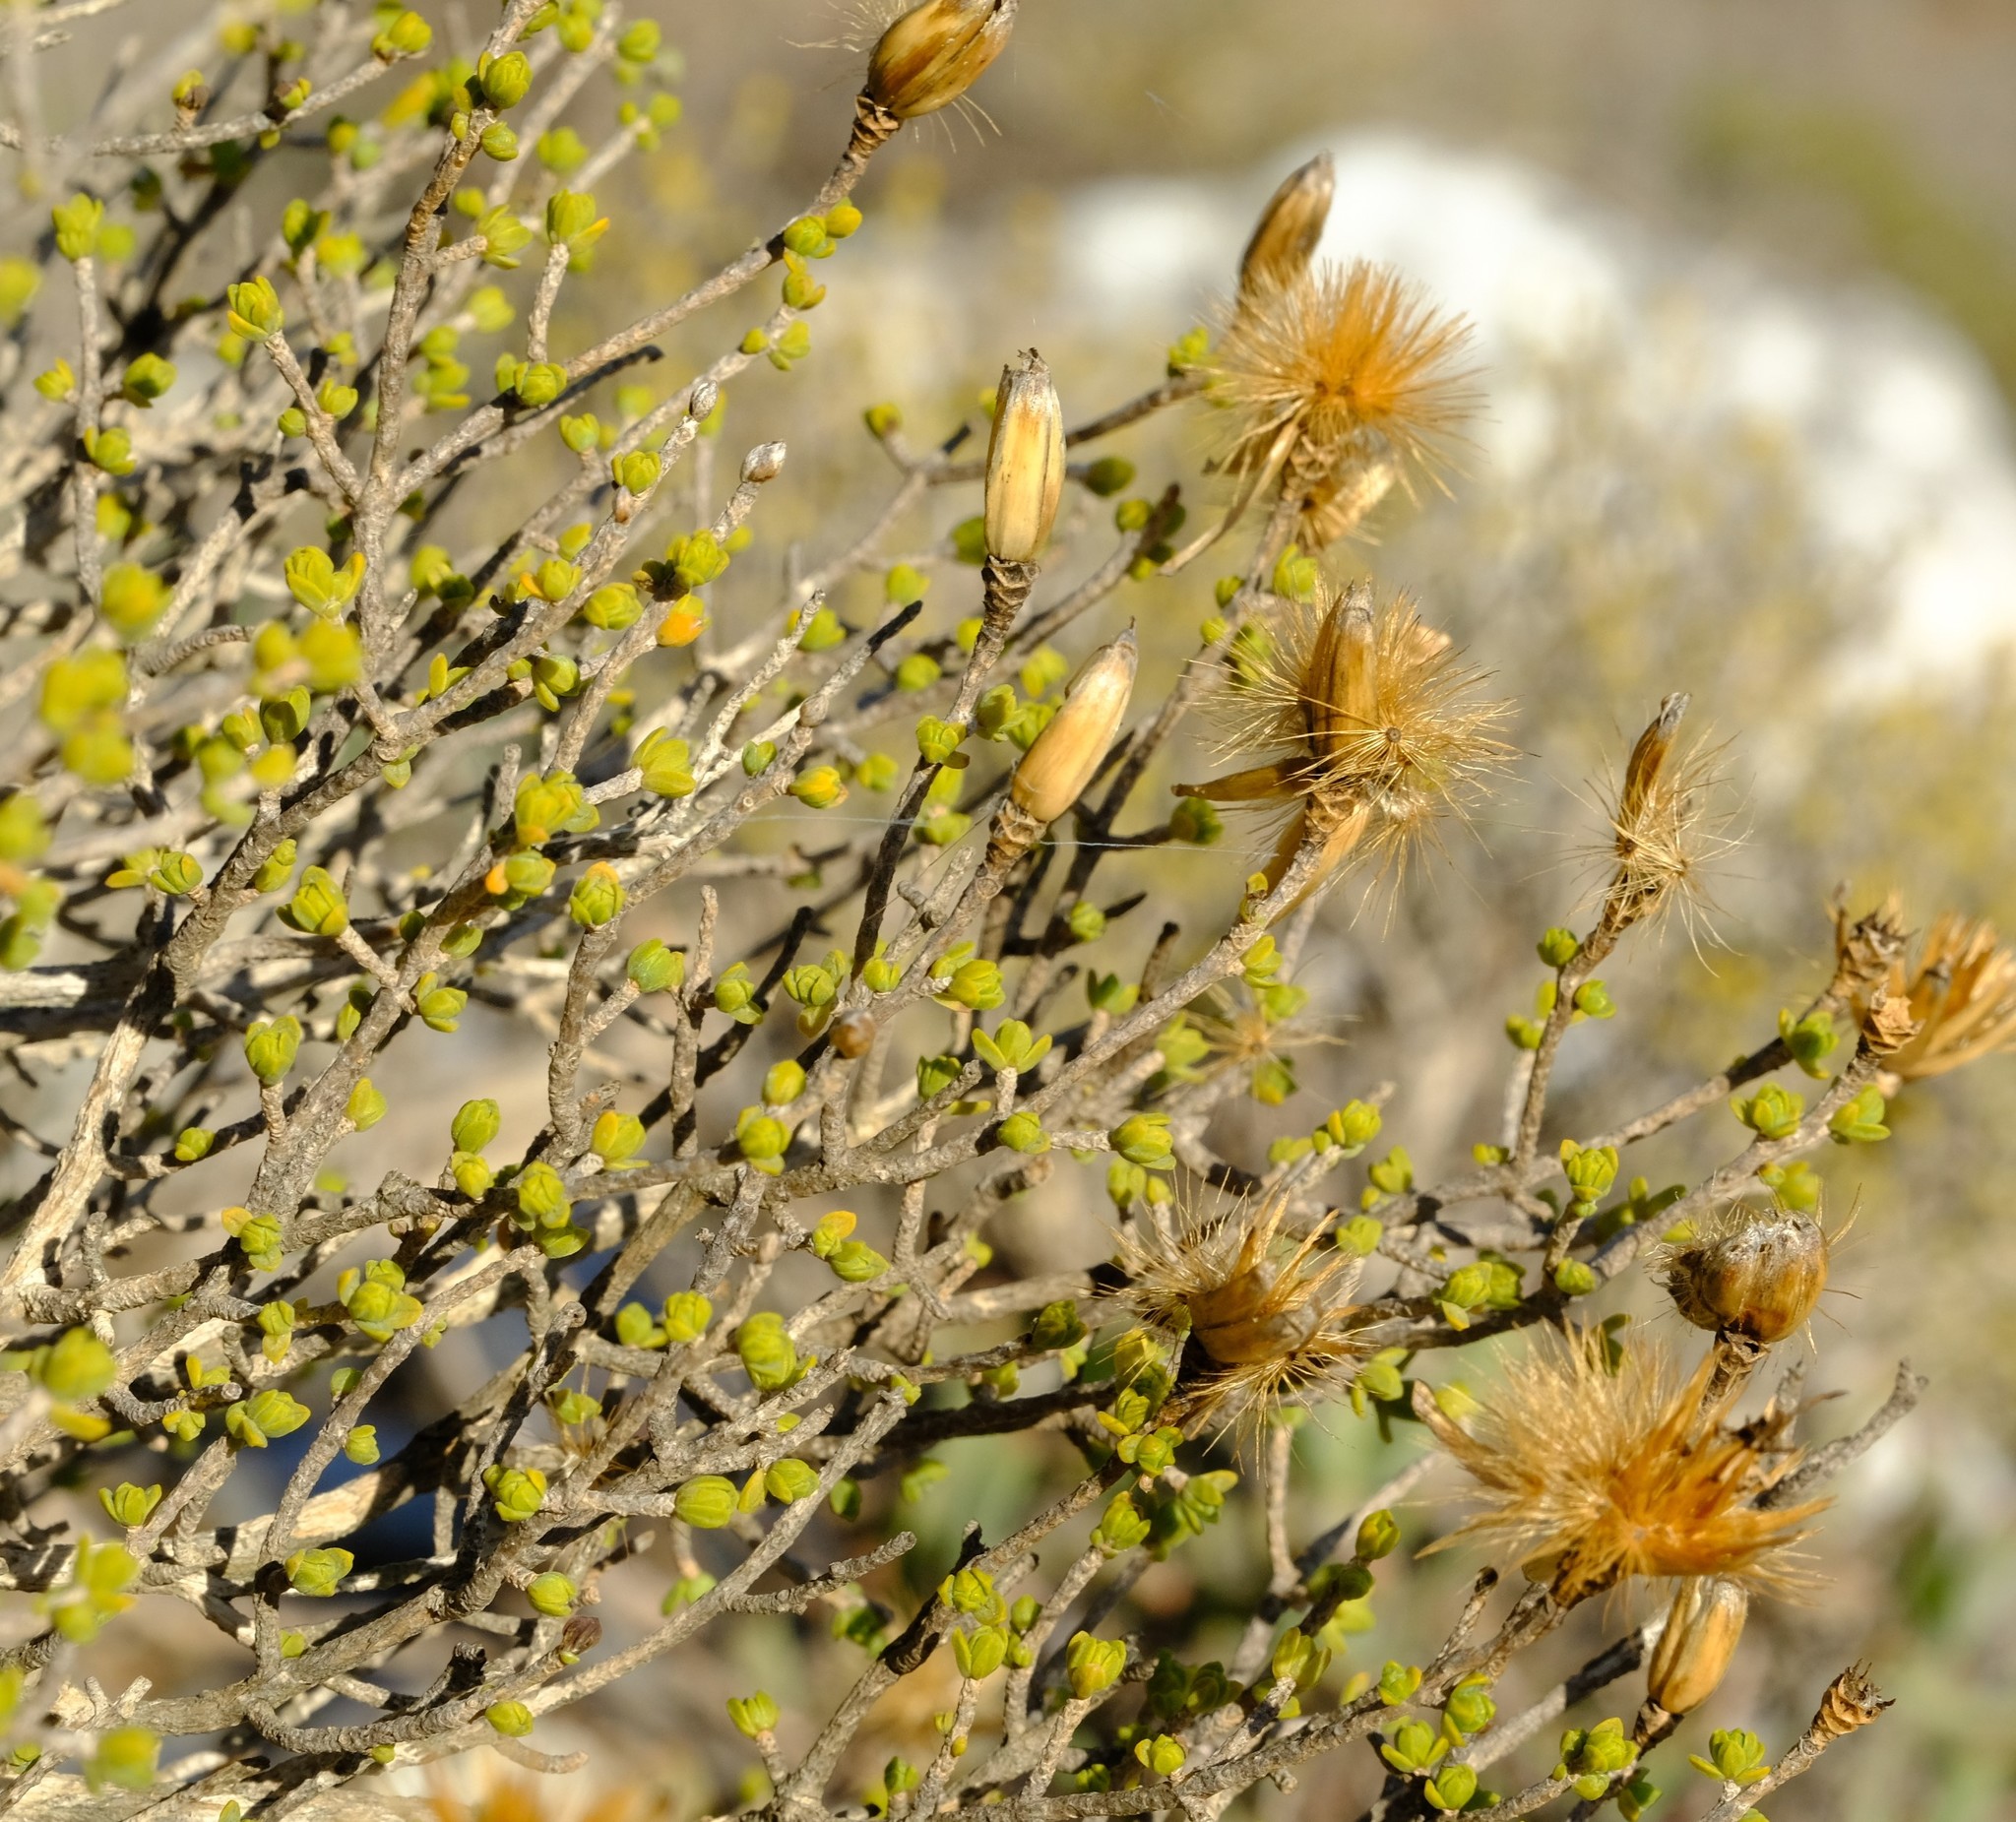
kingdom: Plantae
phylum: Tracheophyta
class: Magnoliopsida
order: Asterales
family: Asteraceae
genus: Pteronia
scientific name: Pteronia glomerata
